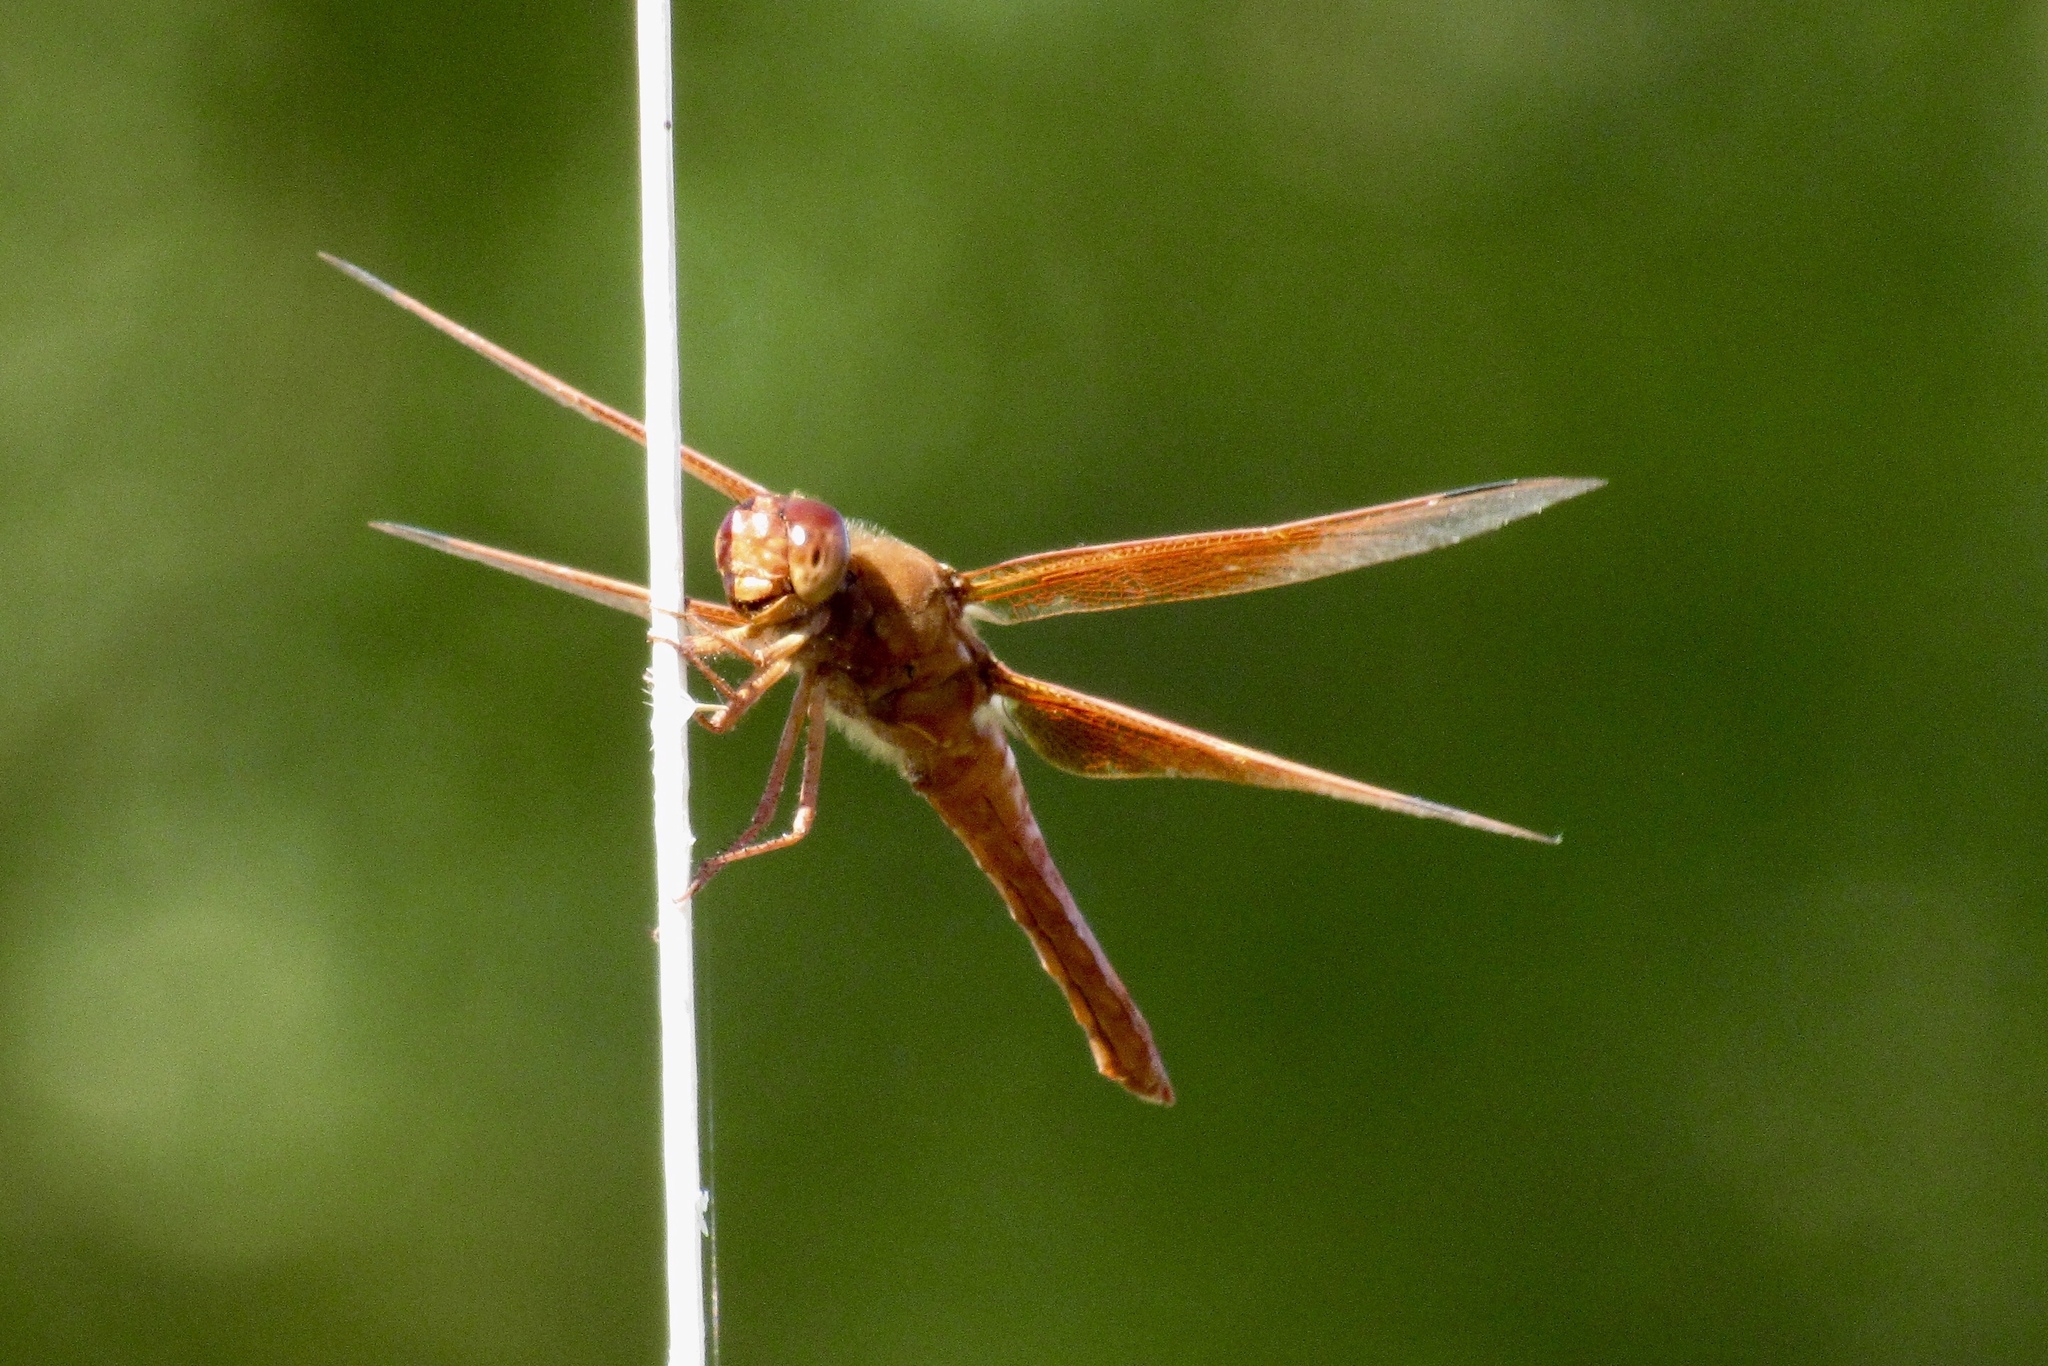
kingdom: Animalia
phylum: Arthropoda
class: Insecta
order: Odonata
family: Libellulidae
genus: Libellula
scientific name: Libellula saturata
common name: Flame skimmer
